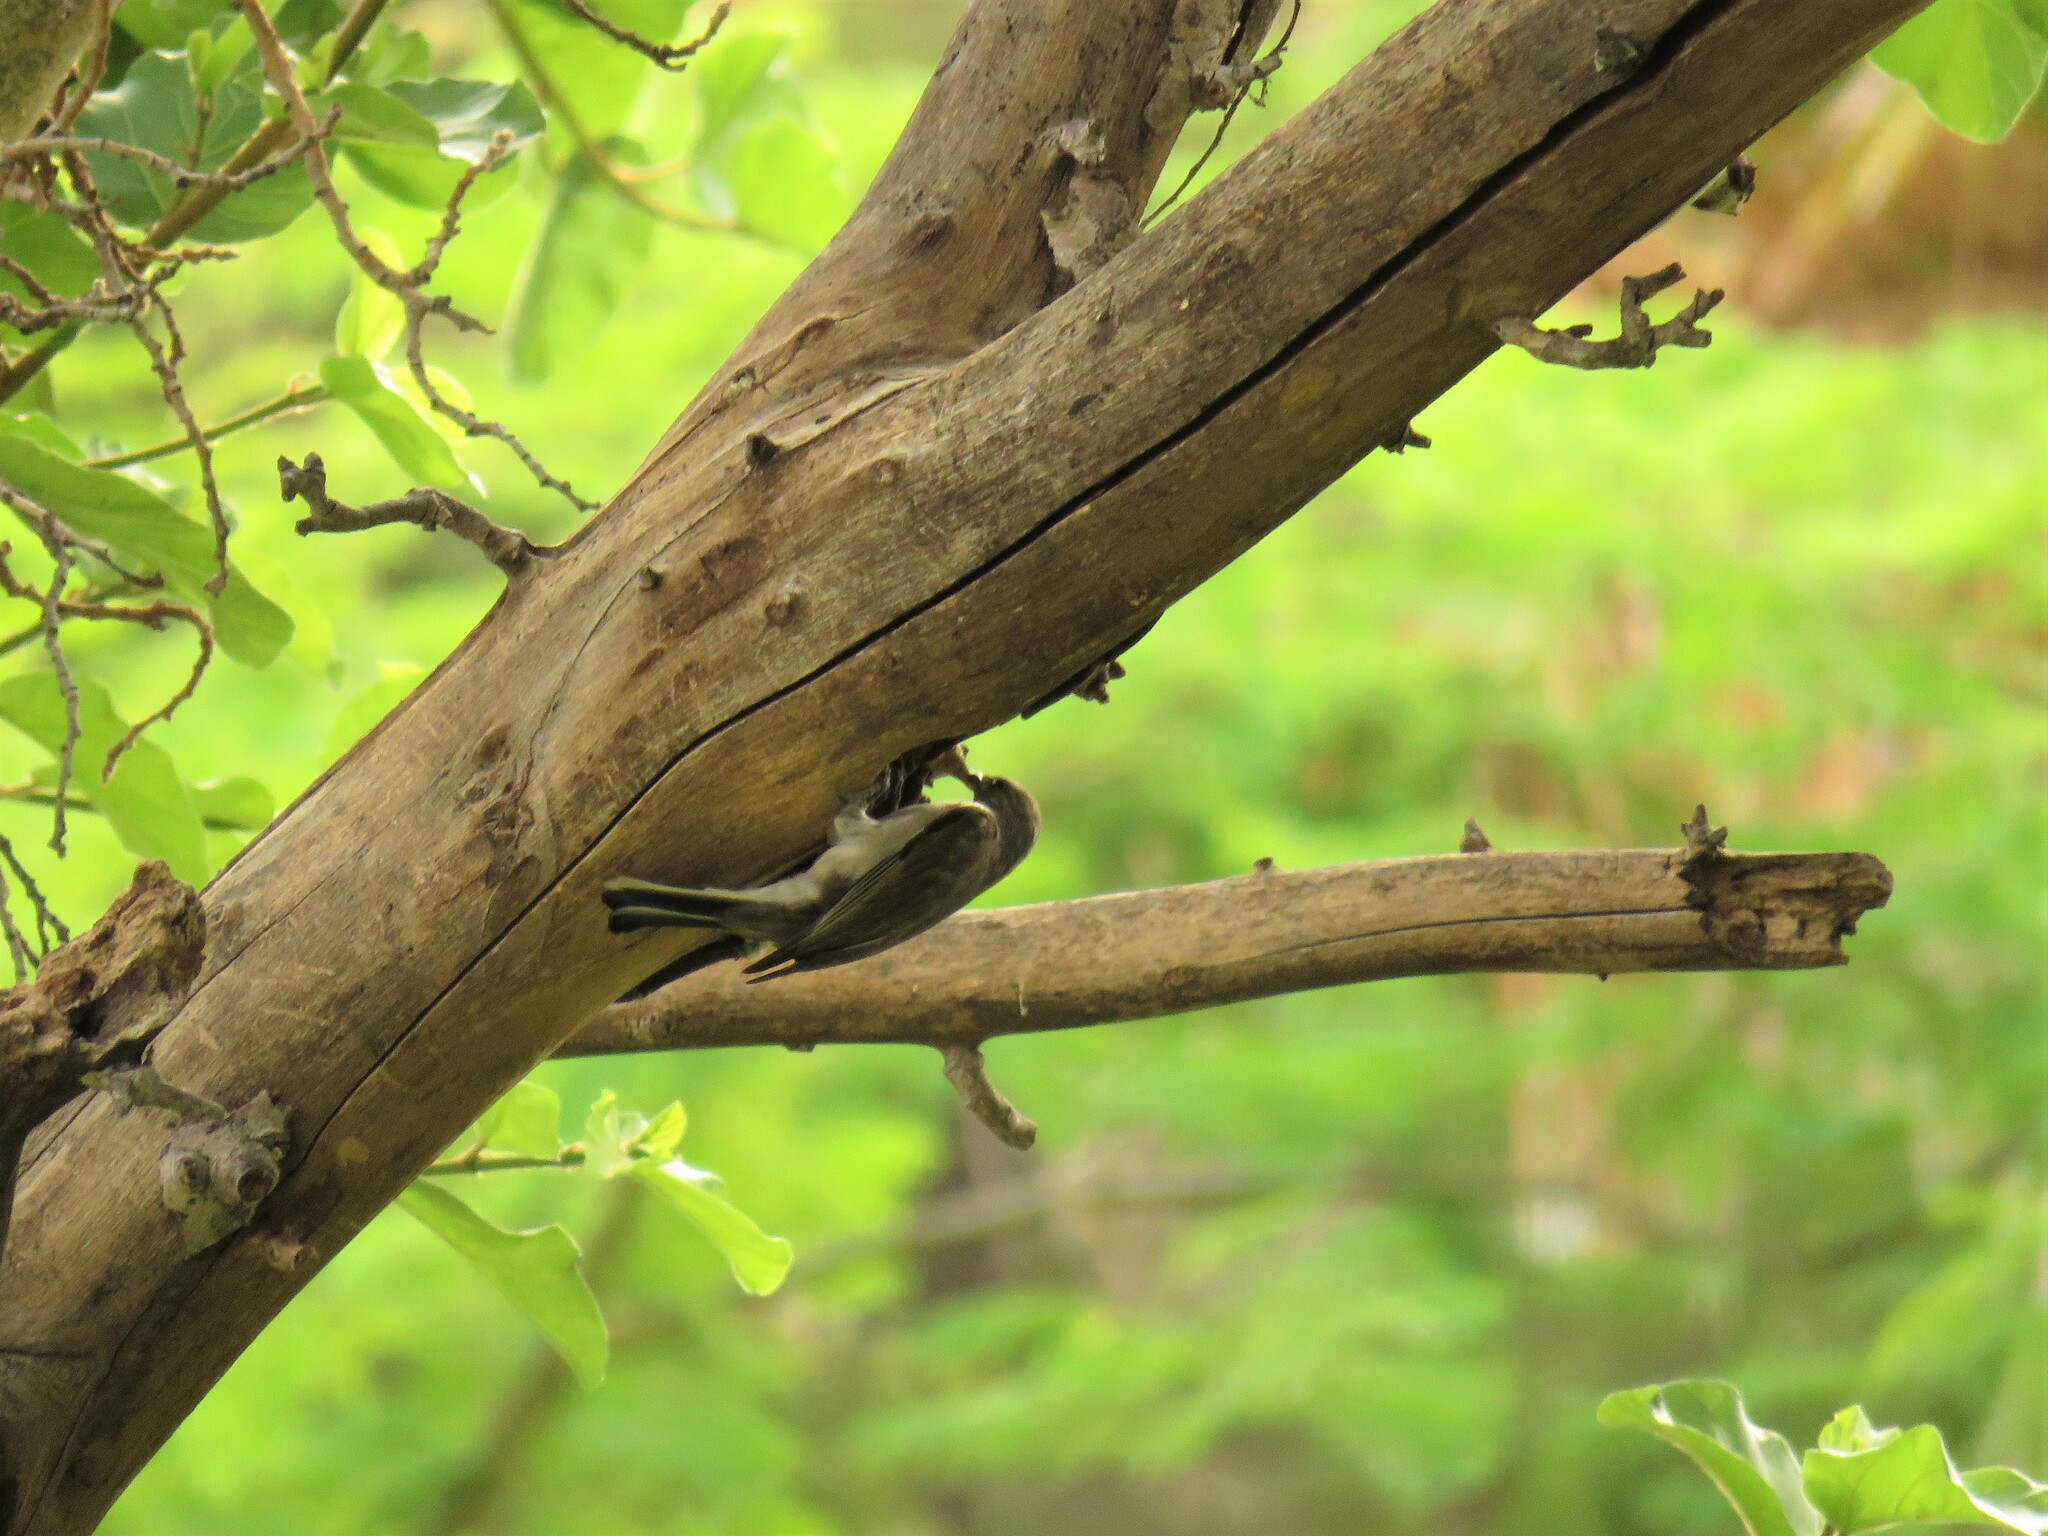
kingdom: Animalia
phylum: Chordata
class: Aves
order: Piciformes
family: Indicatoridae
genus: Indicator
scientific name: Indicator minor
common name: Lesser honeyguide
